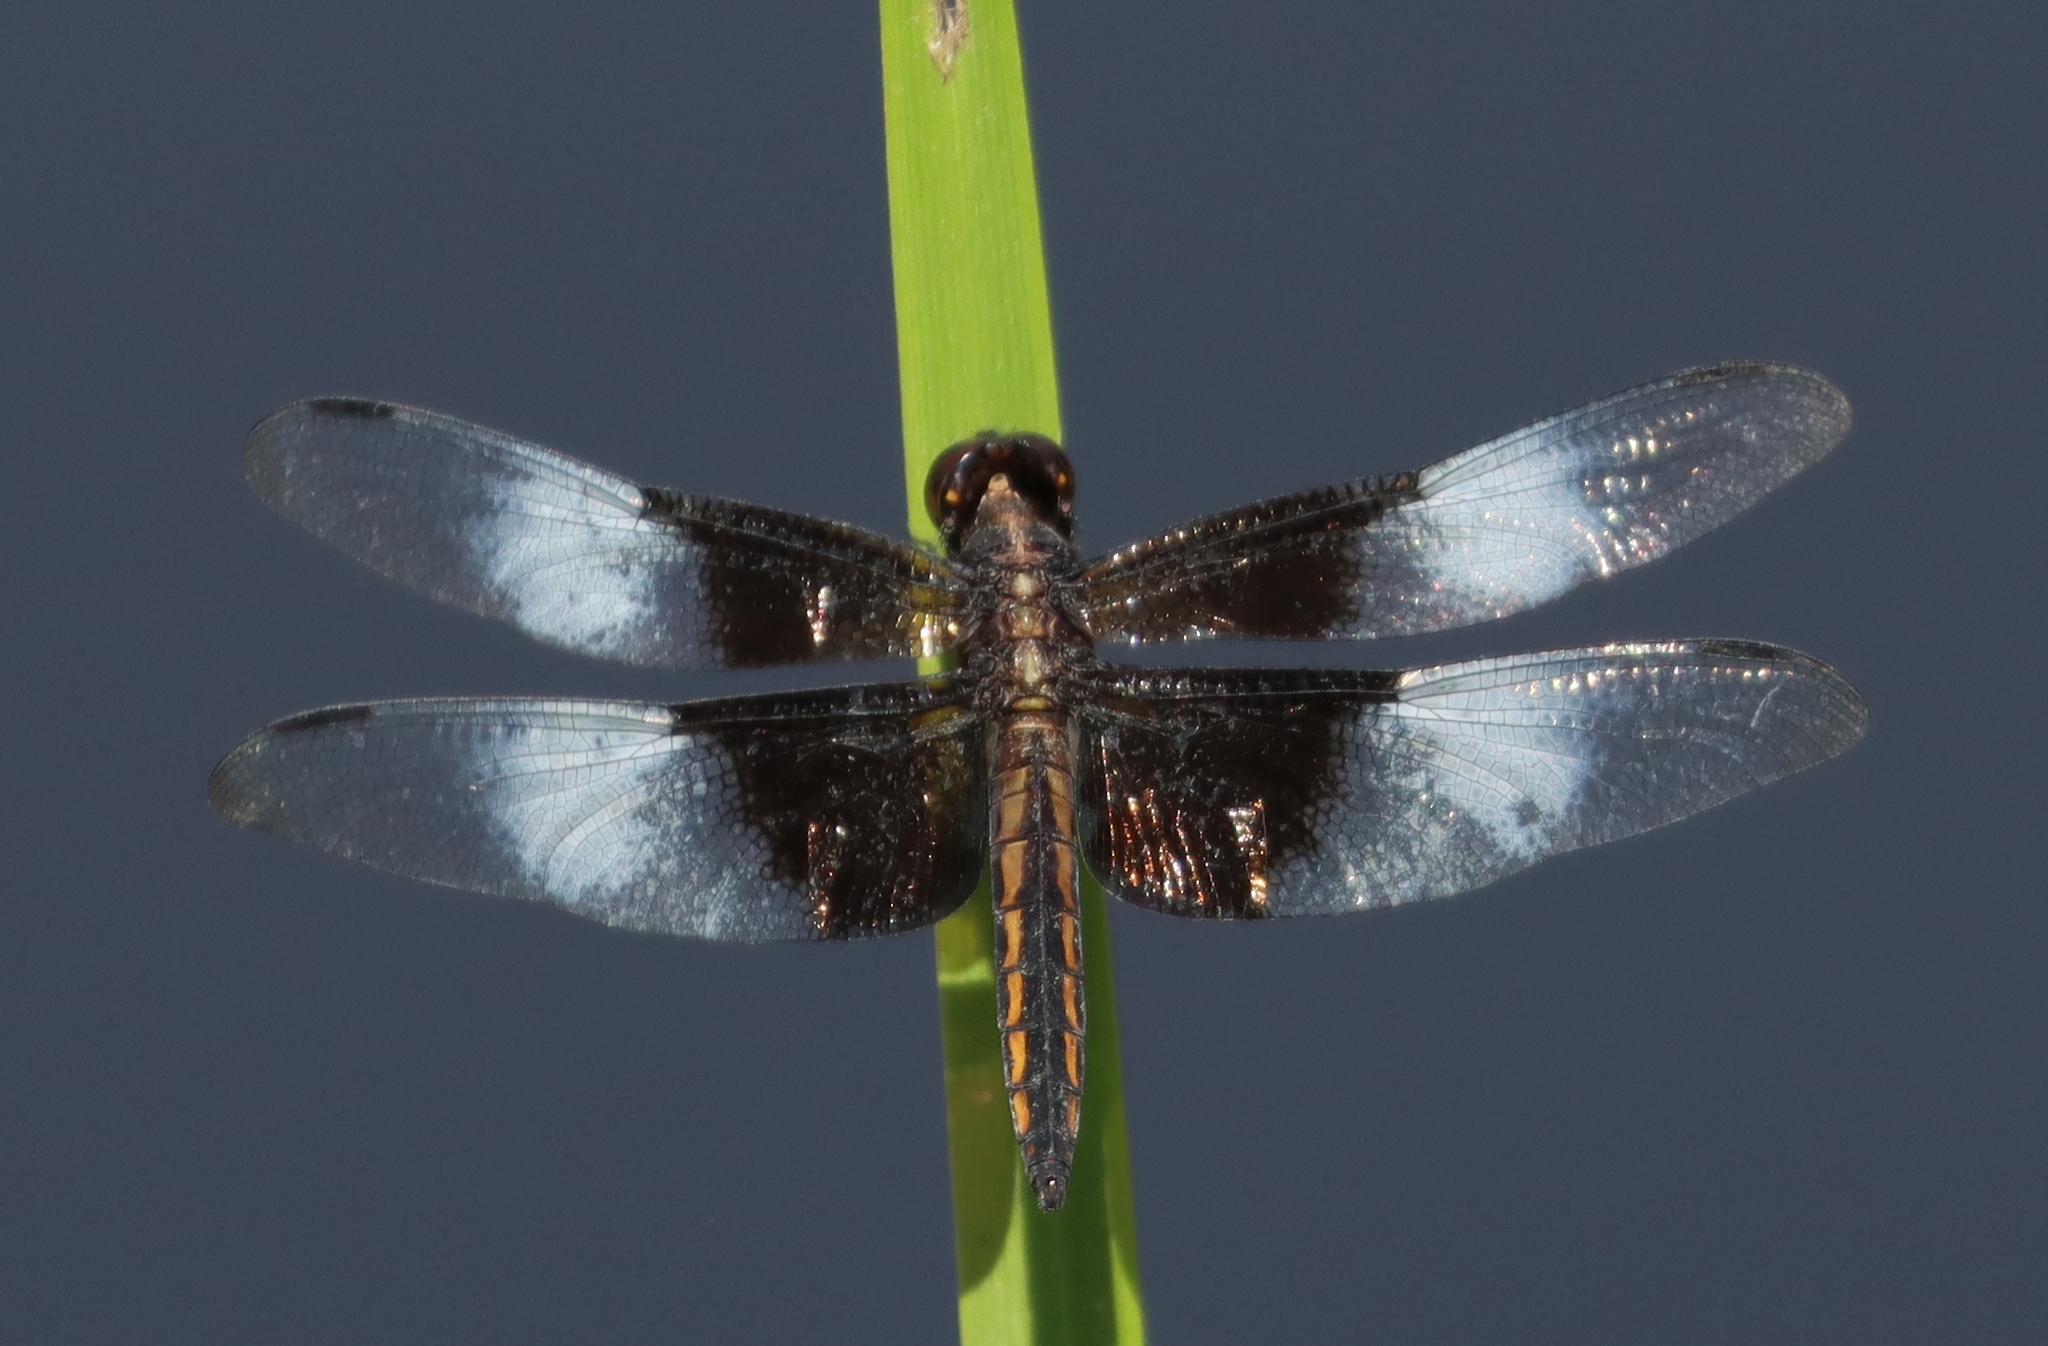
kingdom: Animalia
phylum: Arthropoda
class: Insecta
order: Odonata
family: Libellulidae
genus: Libellula
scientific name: Libellula luctuosa
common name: Widow skimmer
